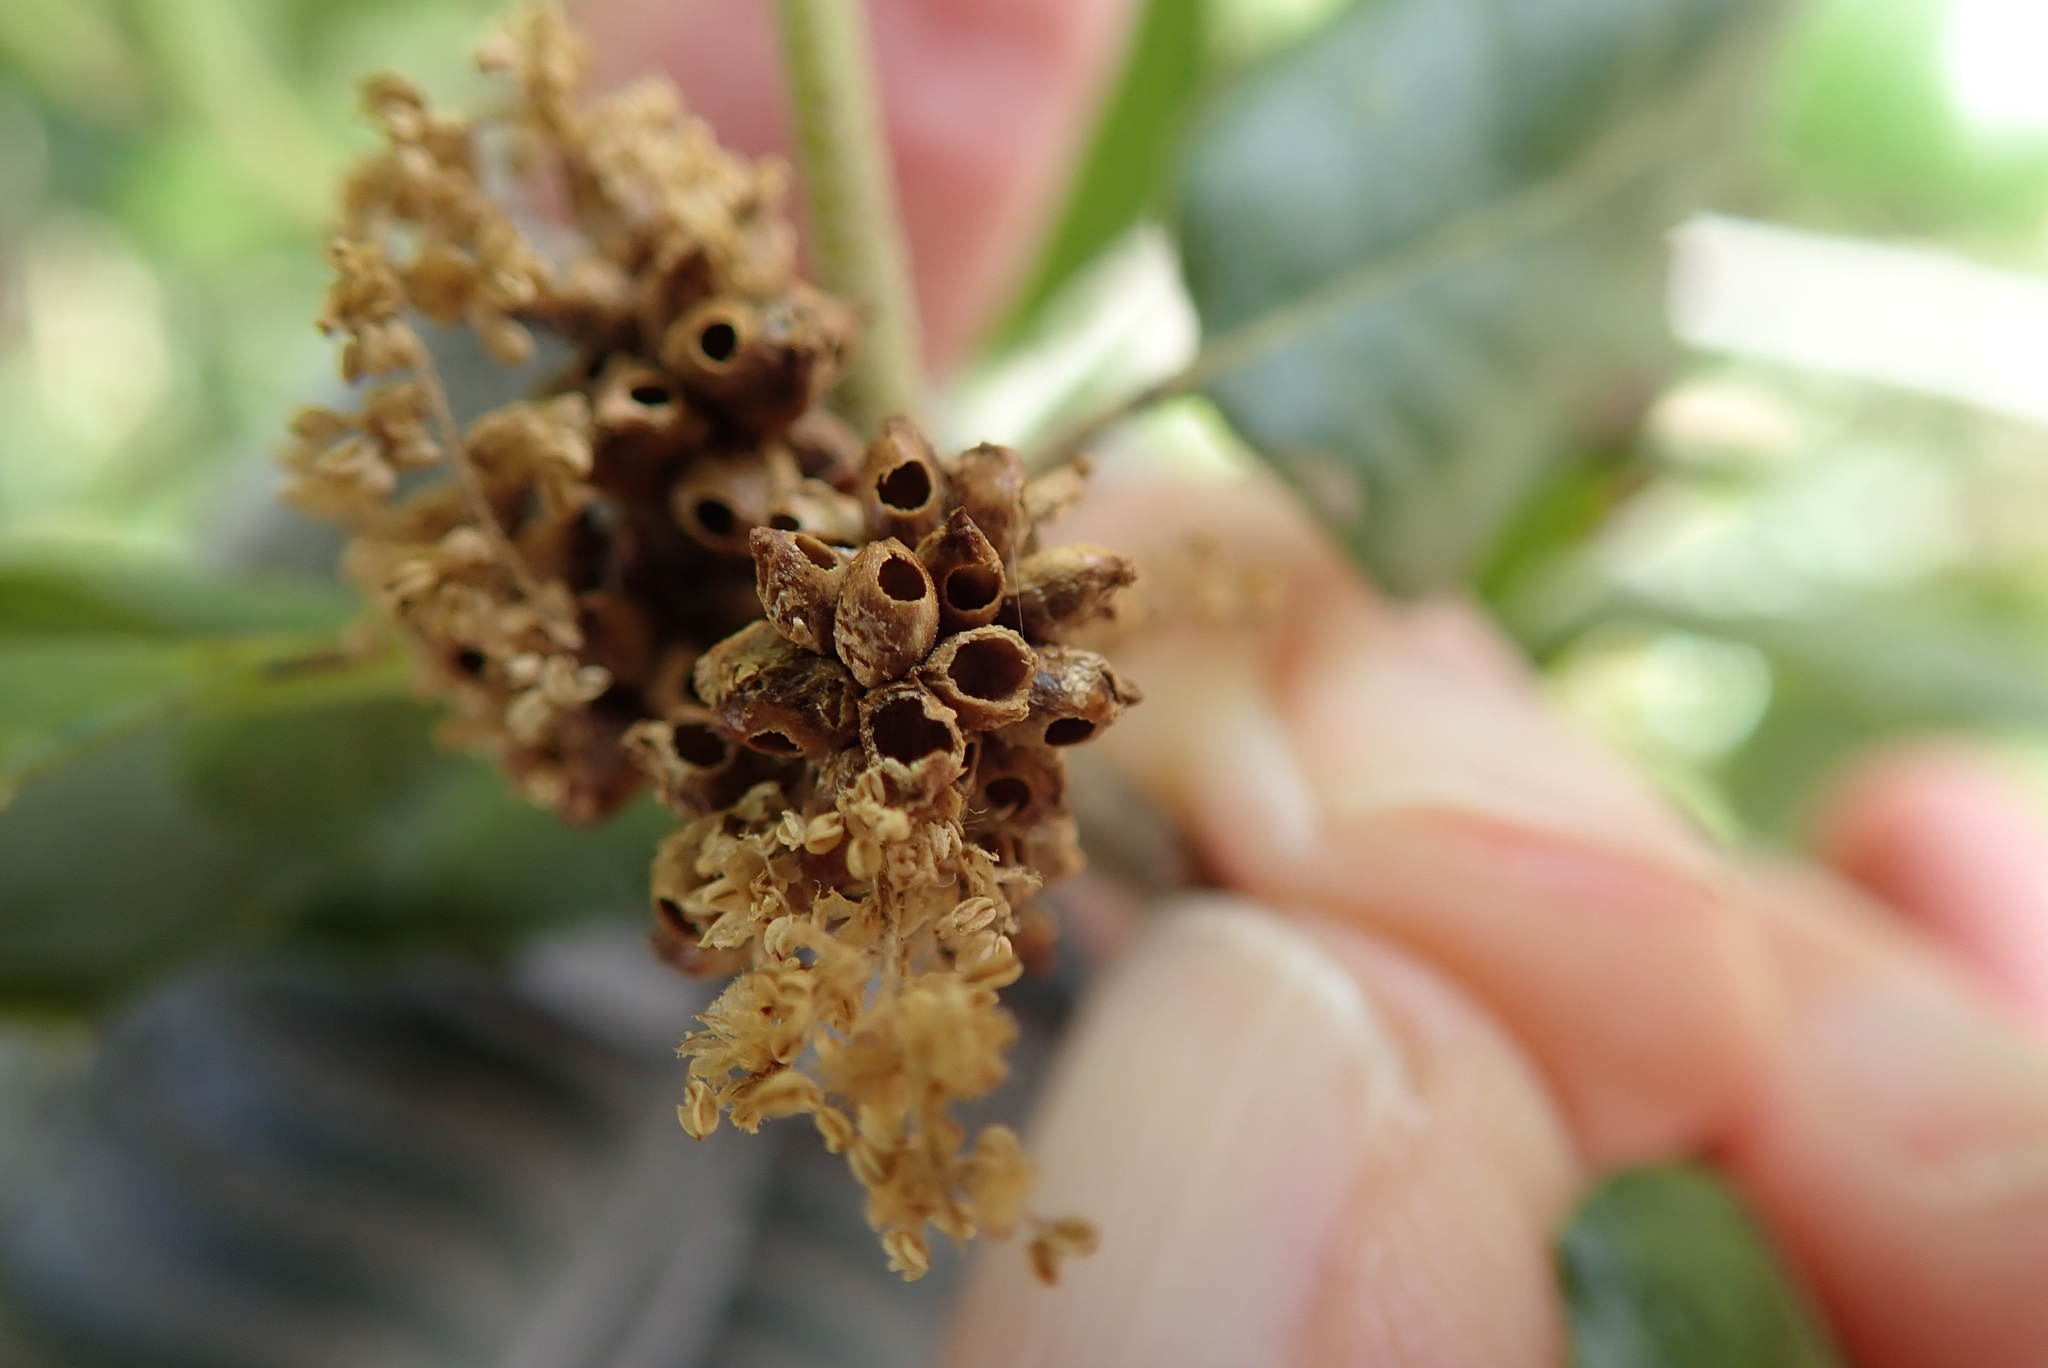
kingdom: Animalia
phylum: Arthropoda
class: Insecta
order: Hymenoptera
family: Cynipidae
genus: Callirhytis
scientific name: Callirhytis
